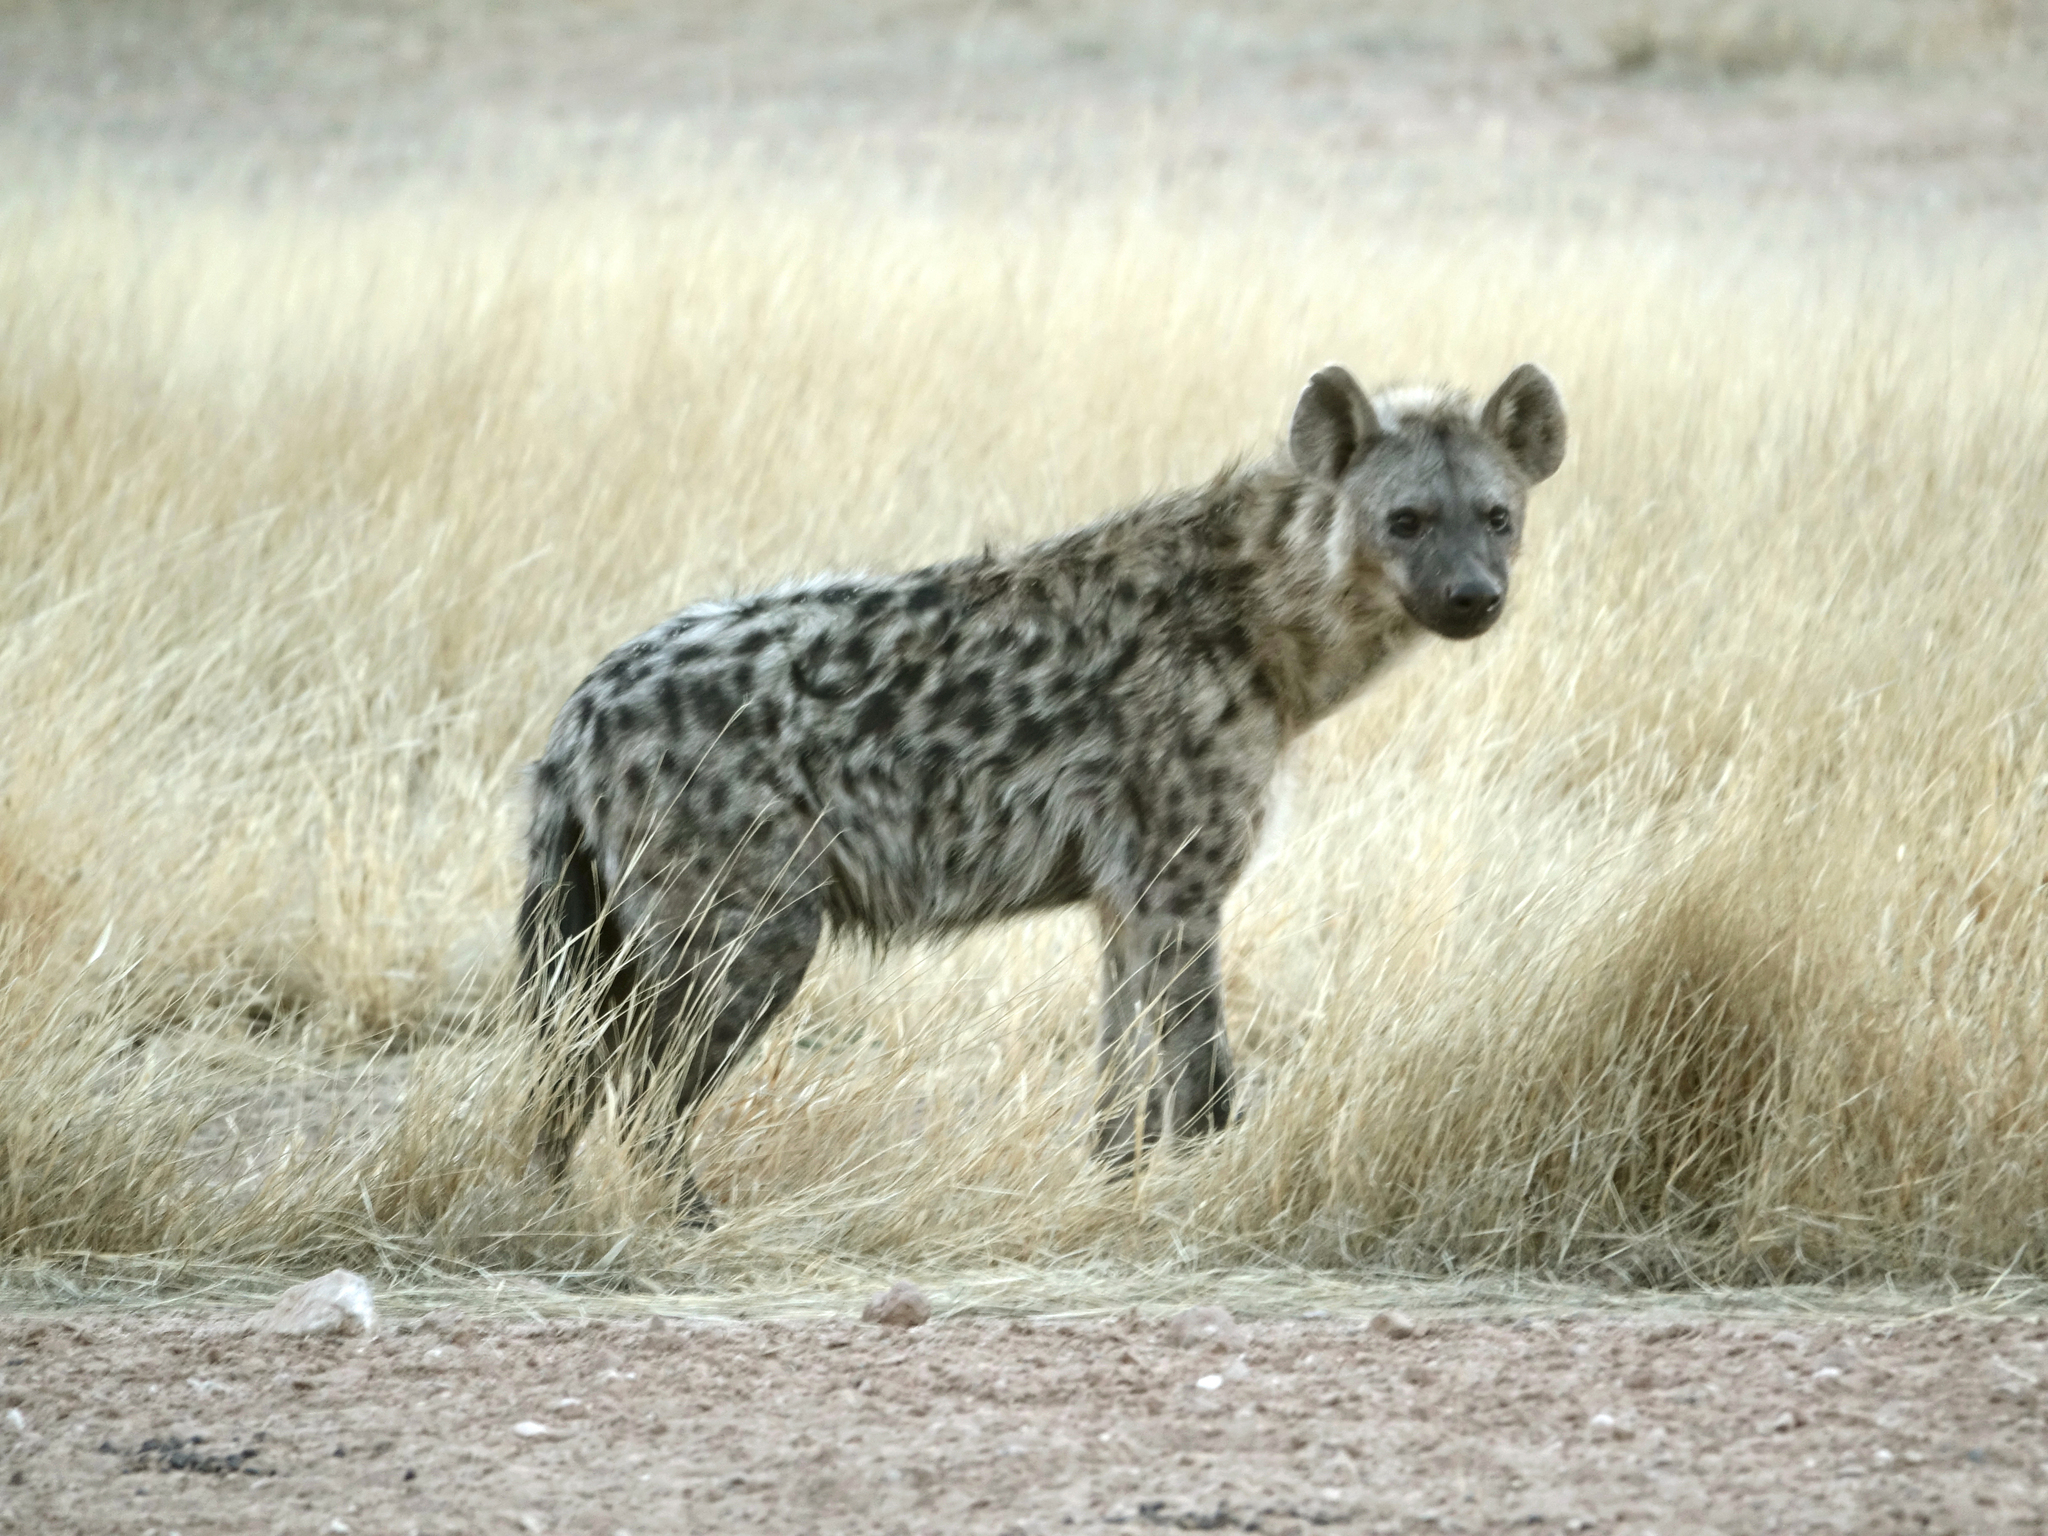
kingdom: Animalia
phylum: Chordata
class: Mammalia
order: Carnivora
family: Hyaenidae
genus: Crocuta
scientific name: Crocuta crocuta
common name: Spotted hyaena
